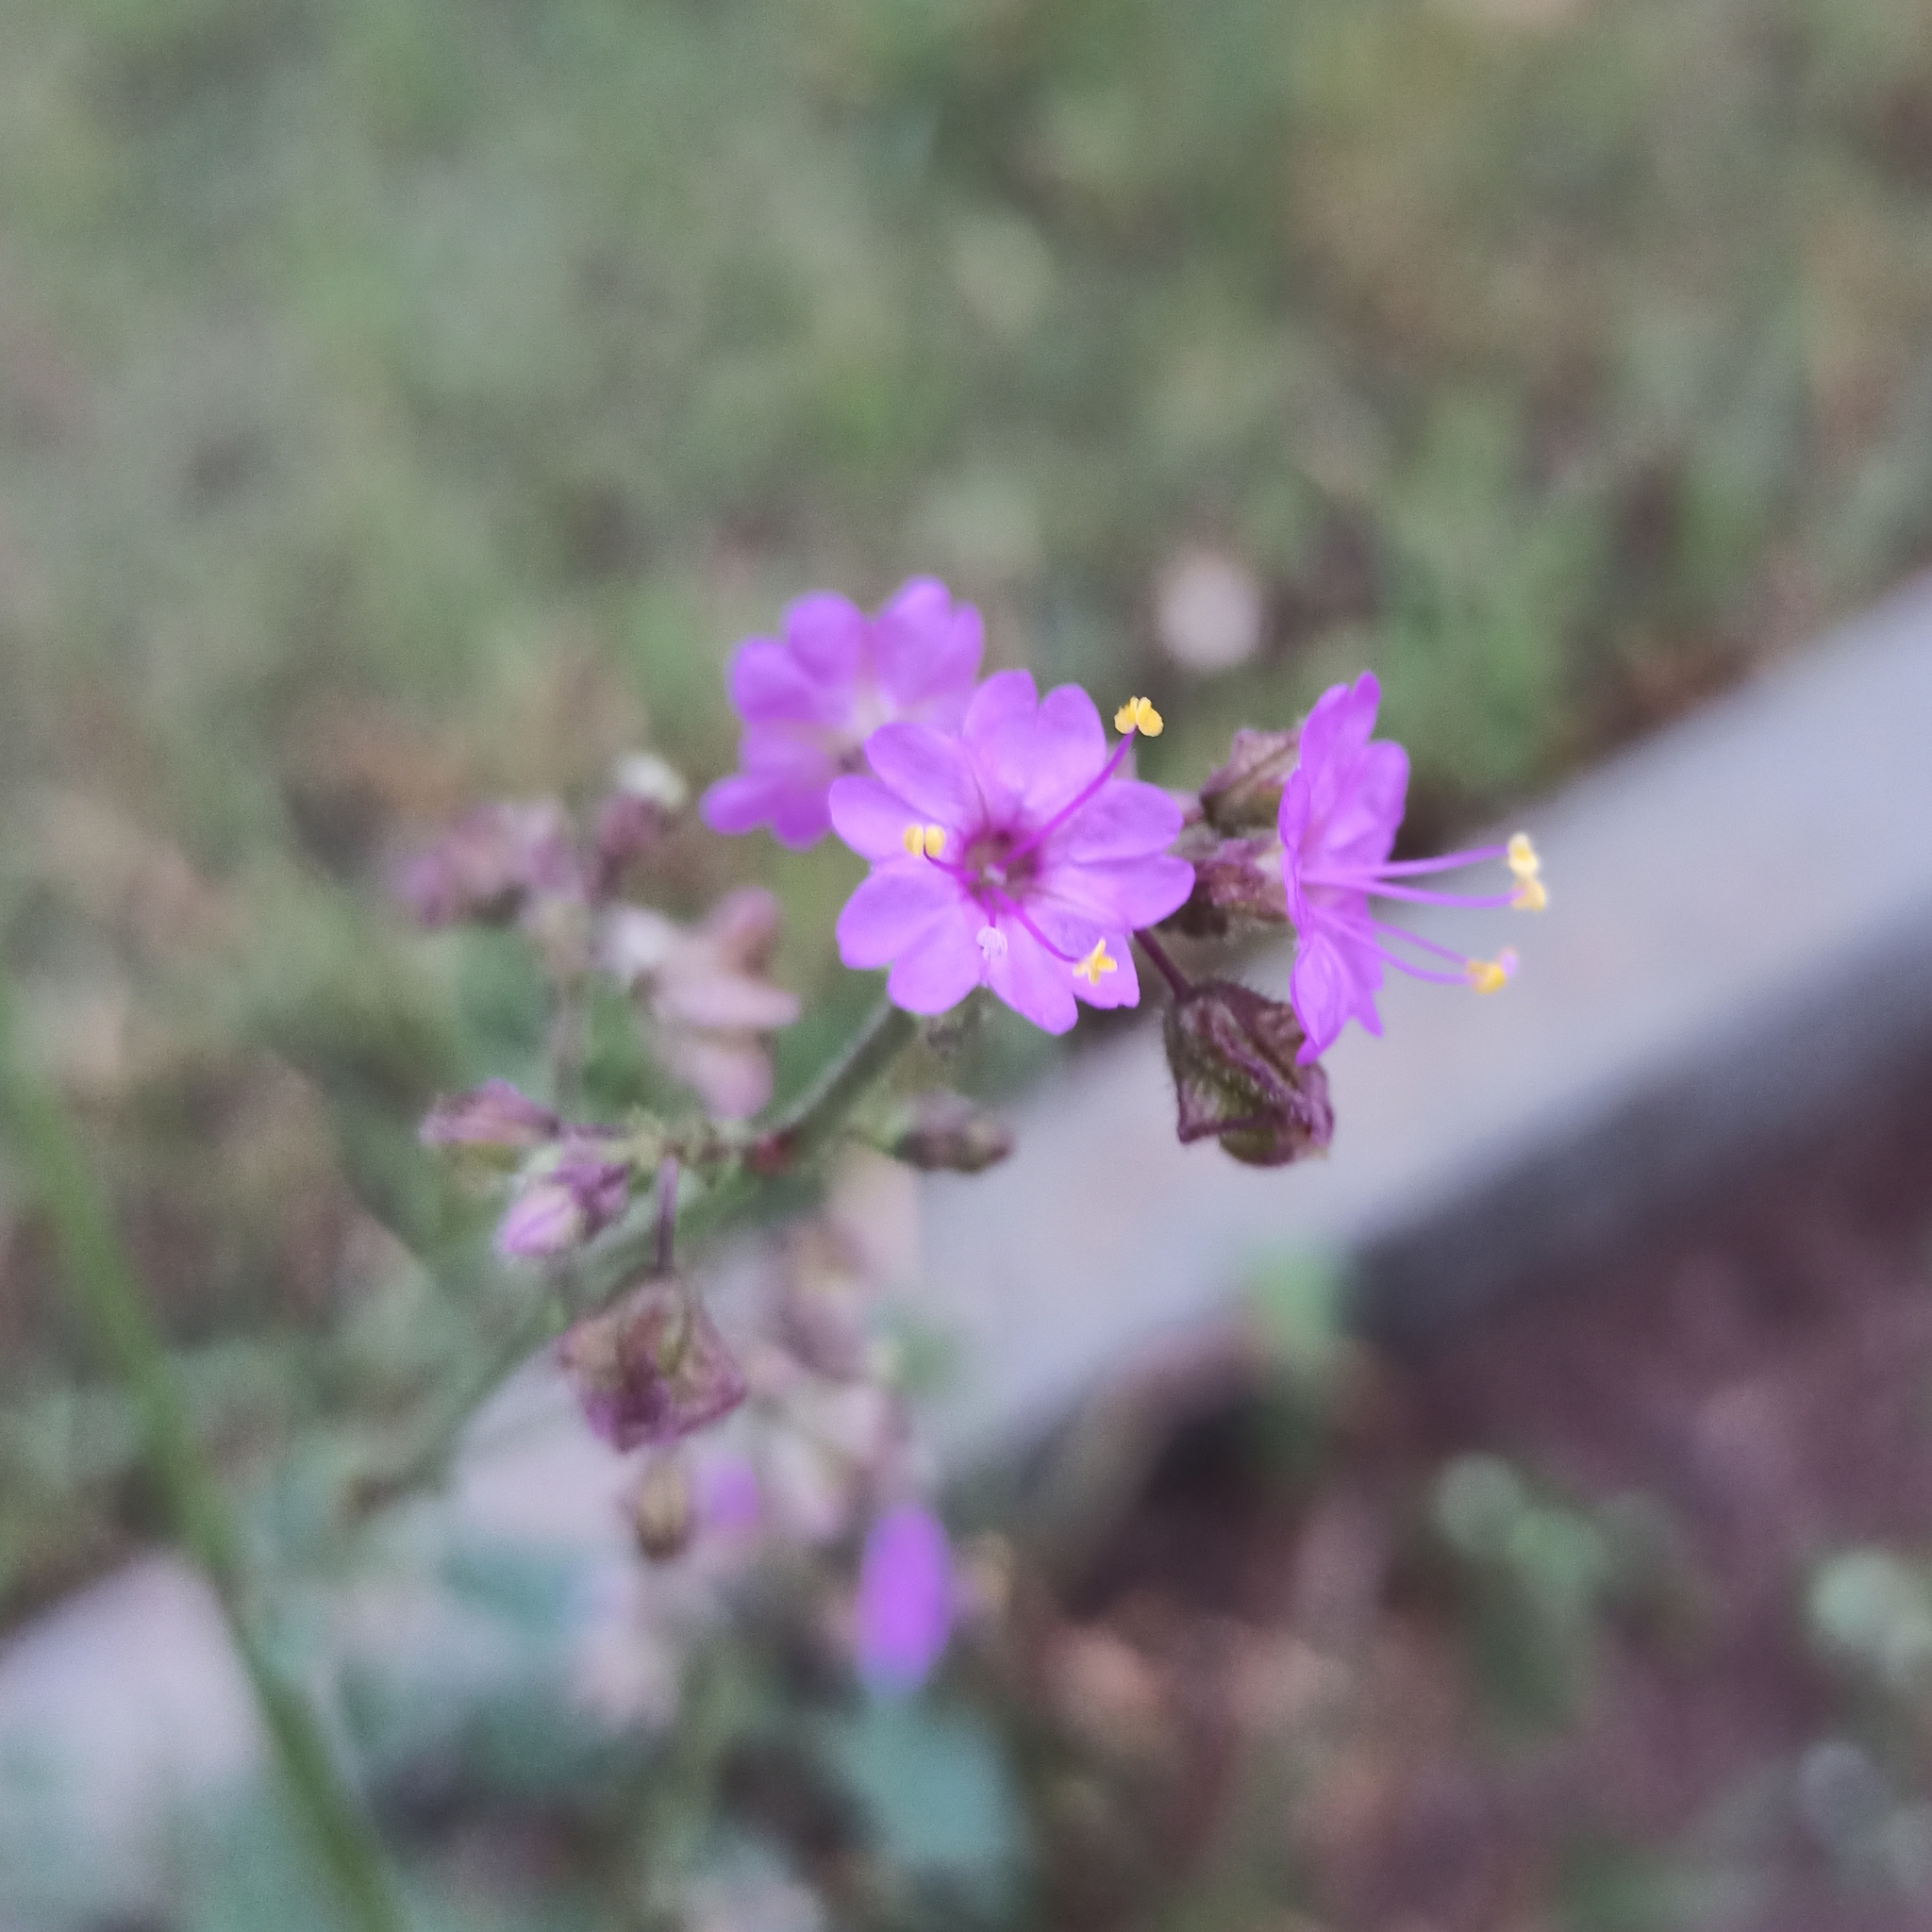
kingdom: Plantae
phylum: Tracheophyta
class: Magnoliopsida
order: Caryophyllales
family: Nyctaginaceae
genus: Mirabilis
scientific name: Mirabilis viscosa
